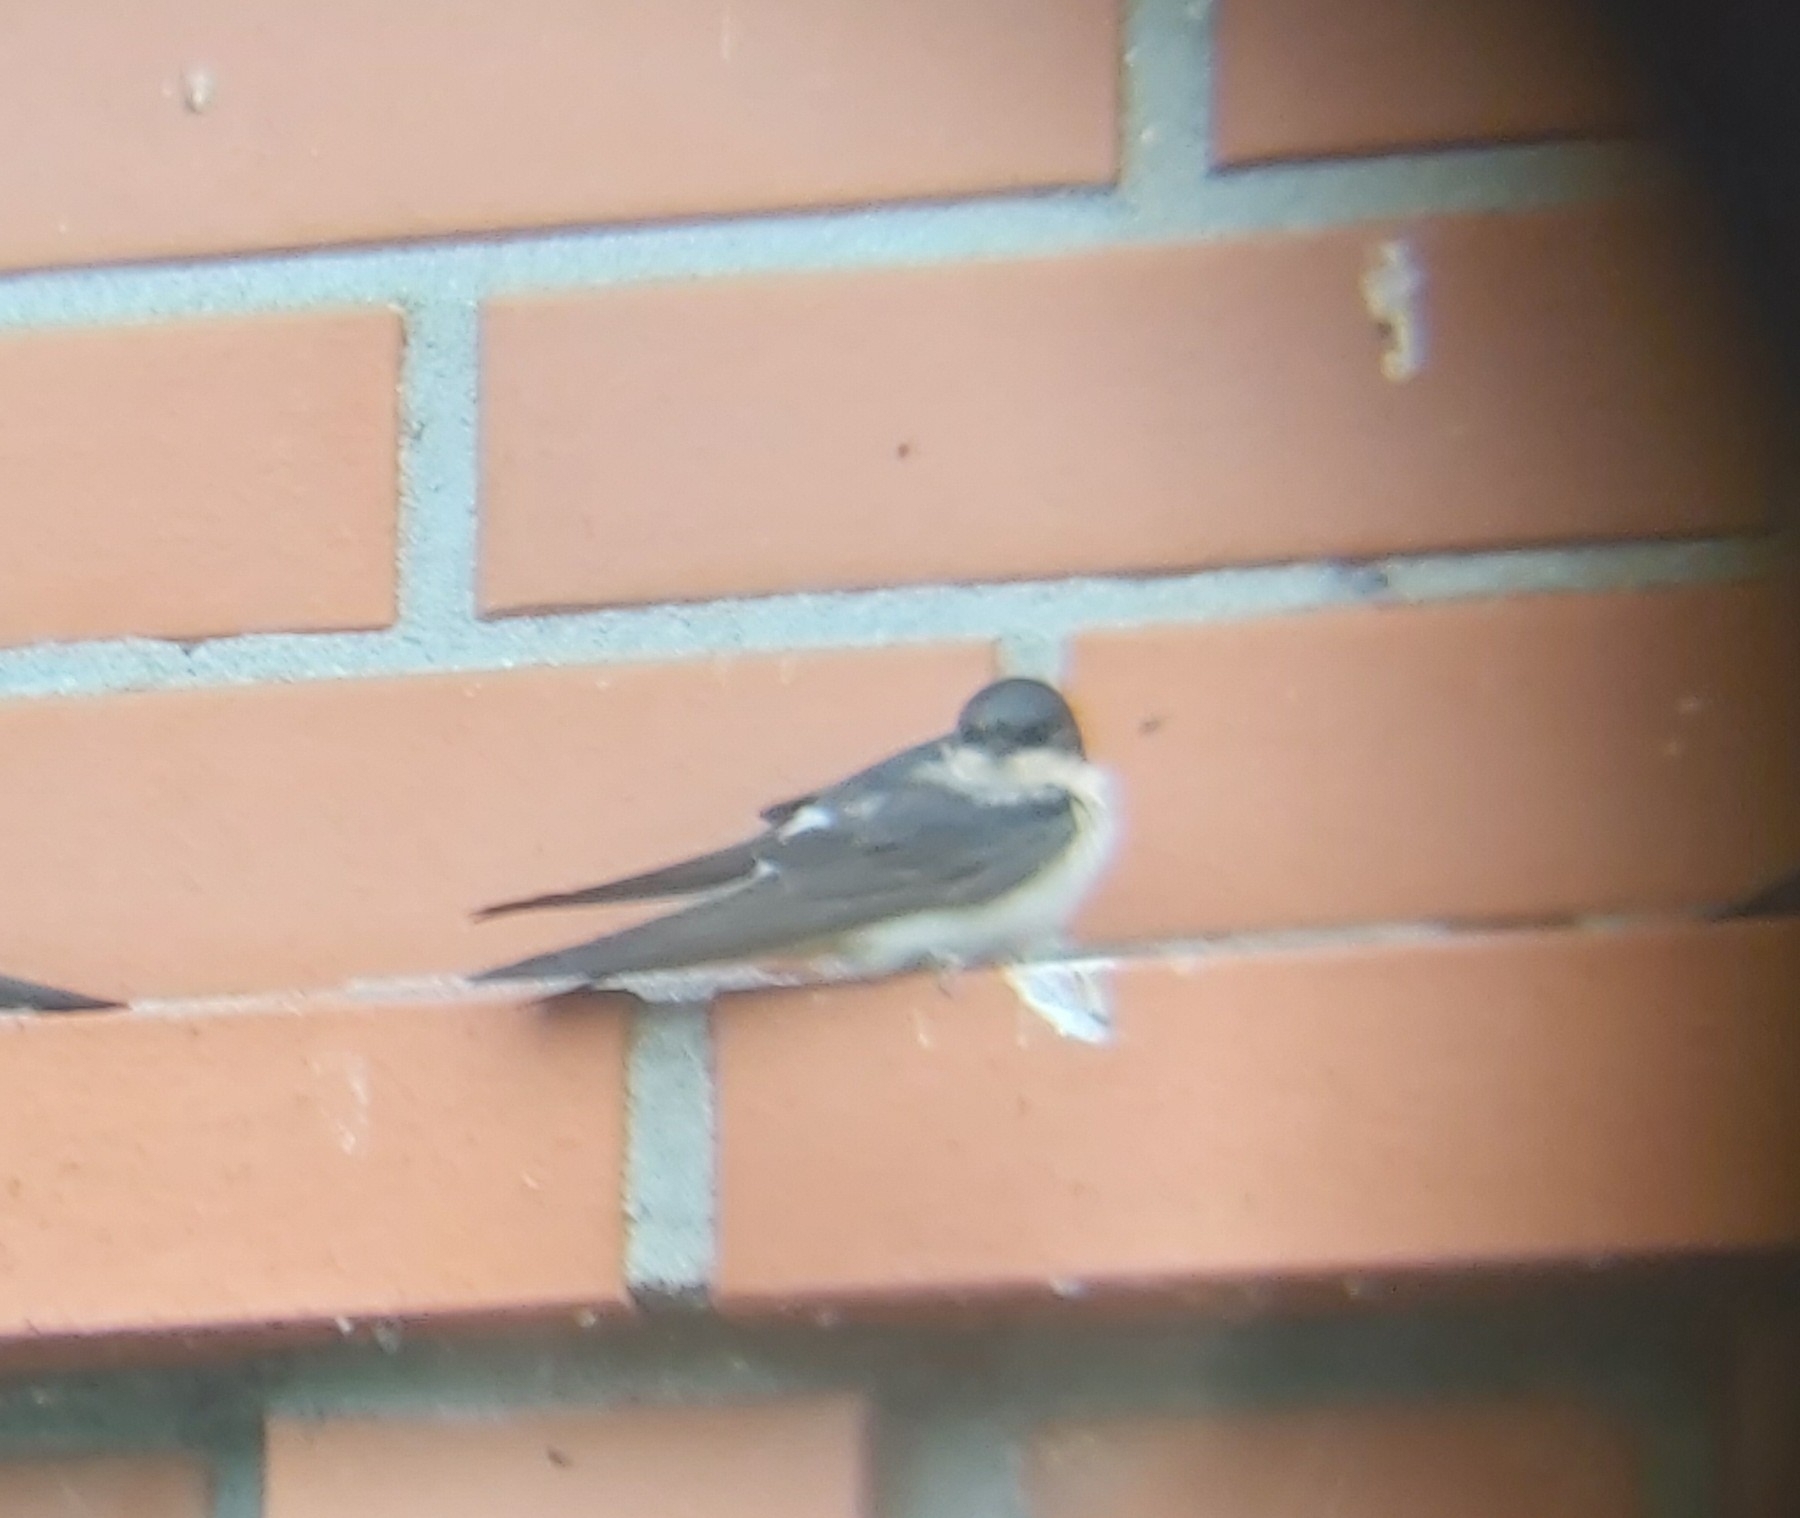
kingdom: Animalia
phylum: Chordata
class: Aves
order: Passeriformes
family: Hirundinidae
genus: Delichon
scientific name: Delichon urbicum
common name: Common house martin
